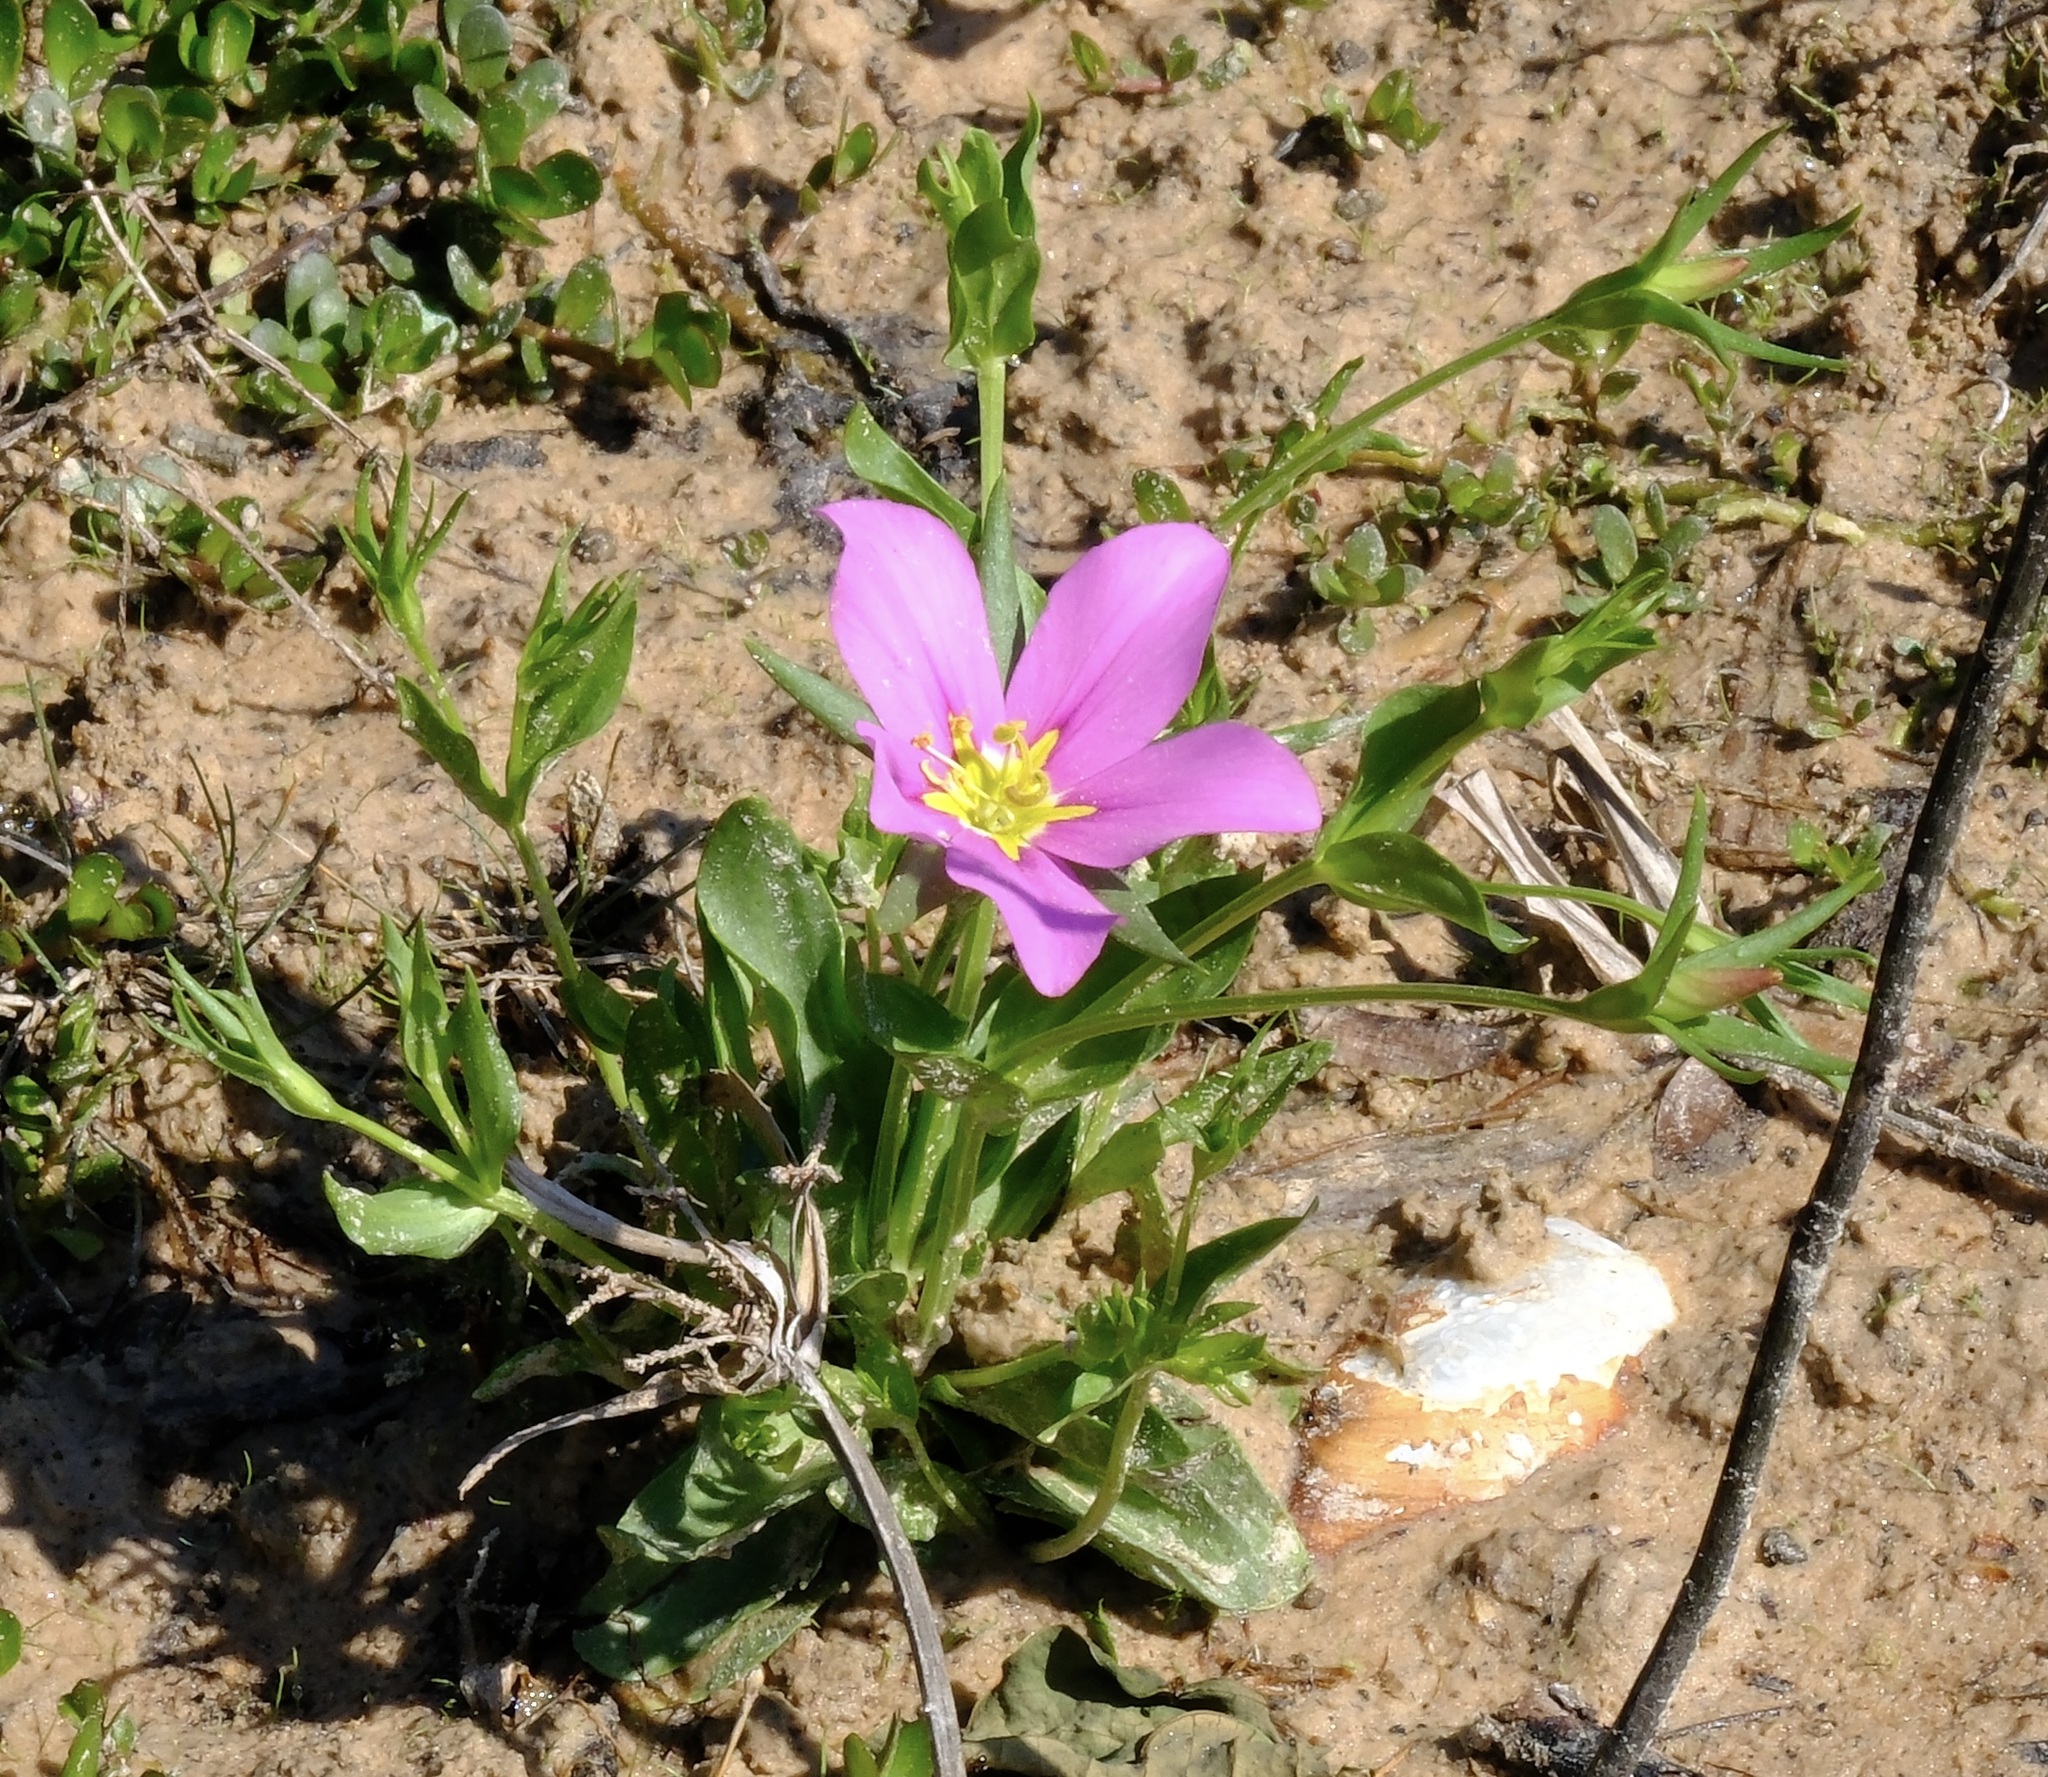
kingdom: Plantae
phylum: Tracheophyta
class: Magnoliopsida
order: Gentianales
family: Gentianaceae
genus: Sabatia
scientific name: Sabatia campestris
